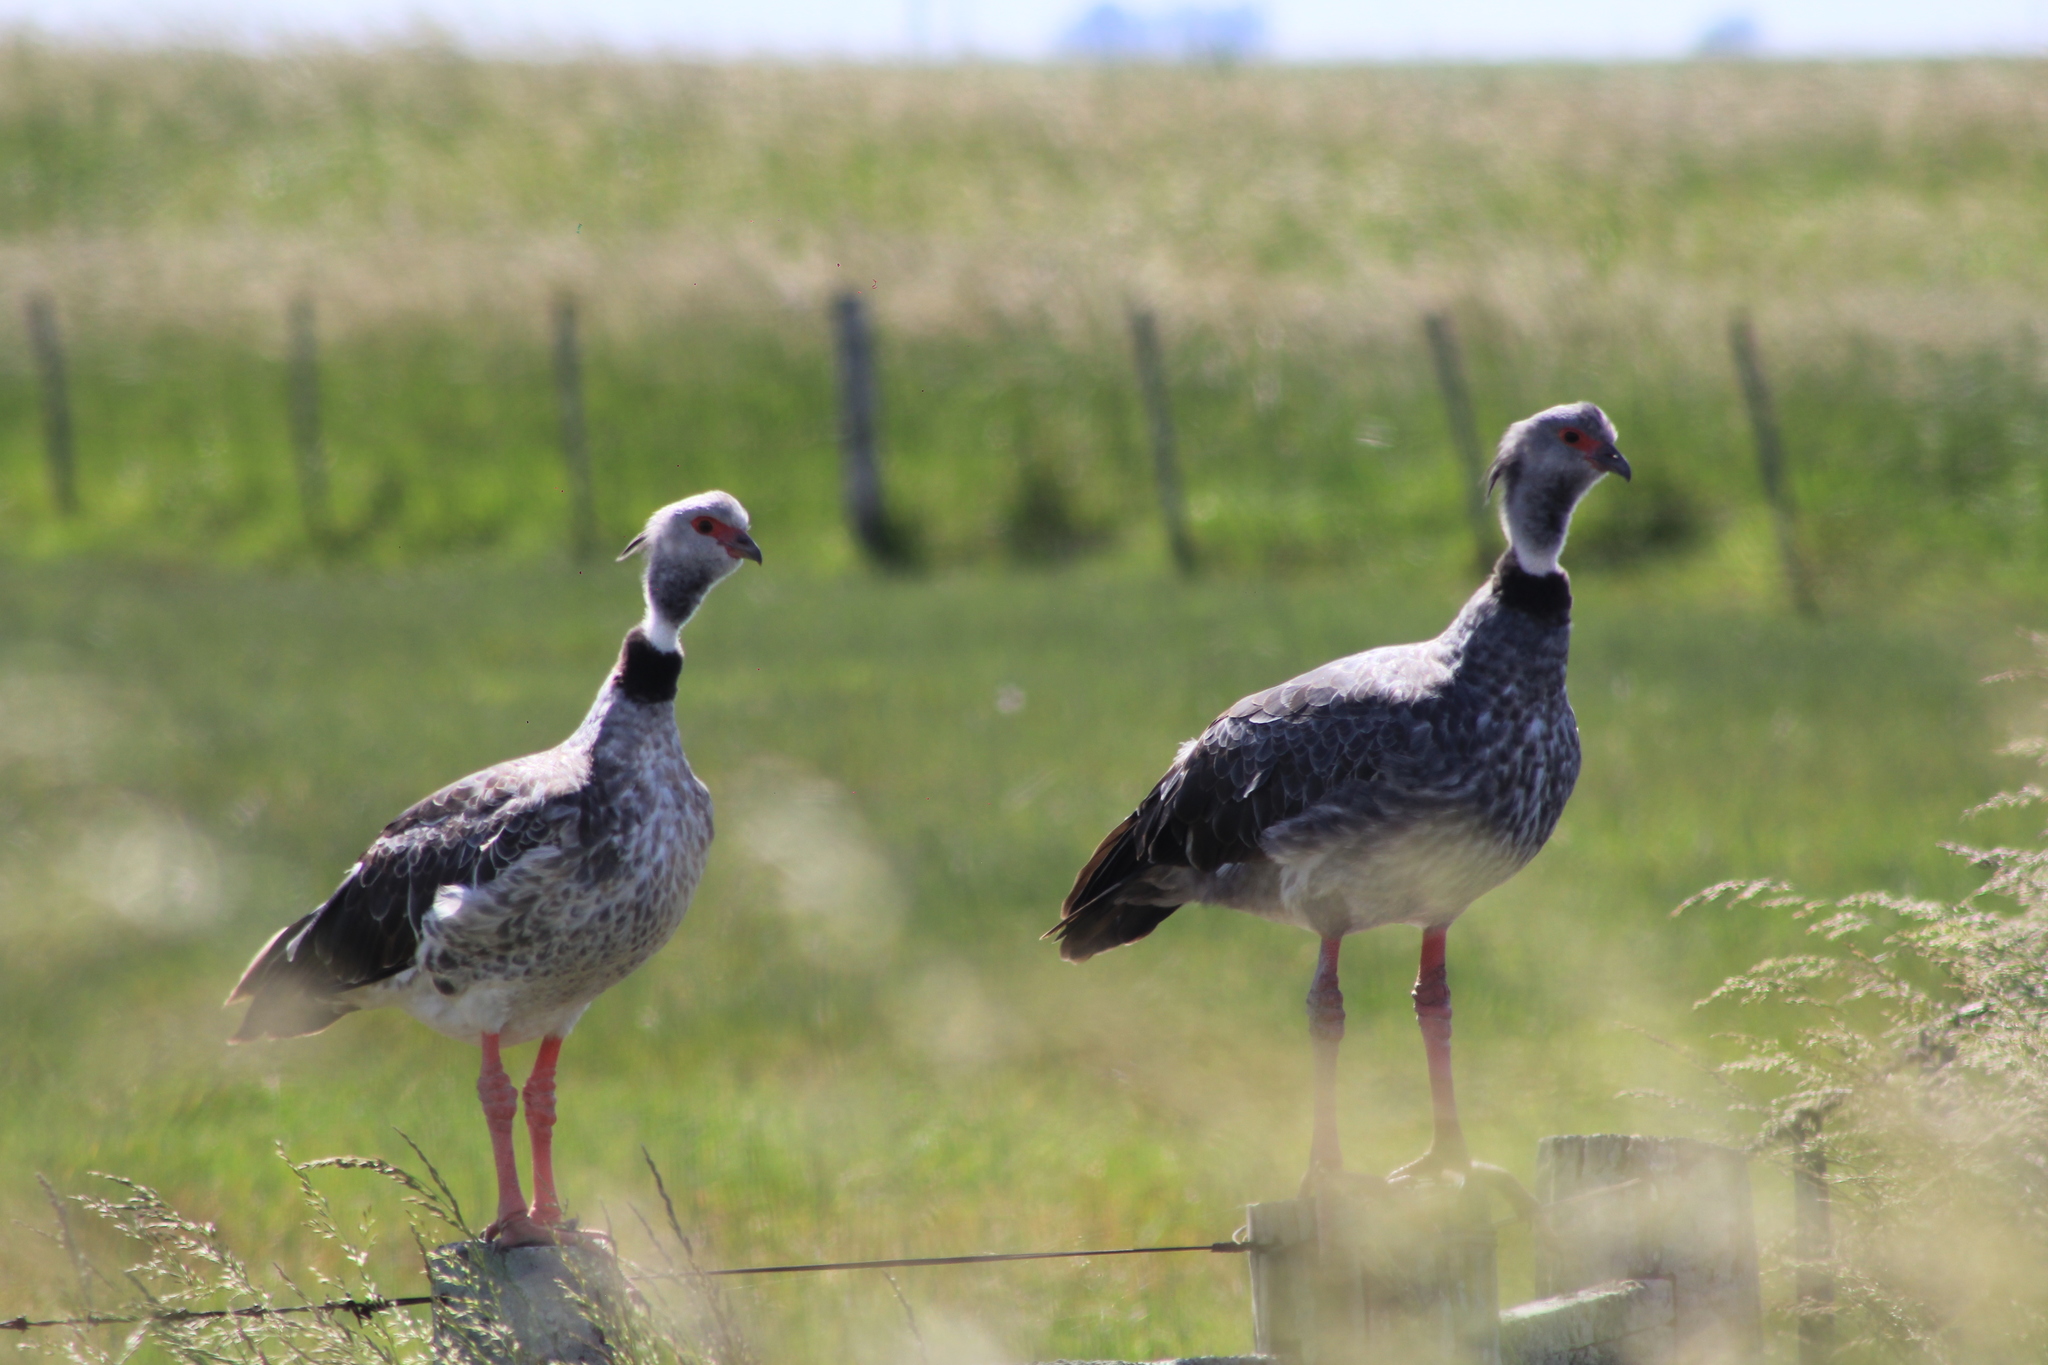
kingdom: Animalia
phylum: Chordata
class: Aves
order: Anseriformes
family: Anhimidae
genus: Chauna
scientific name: Chauna torquata
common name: Southern screamer
